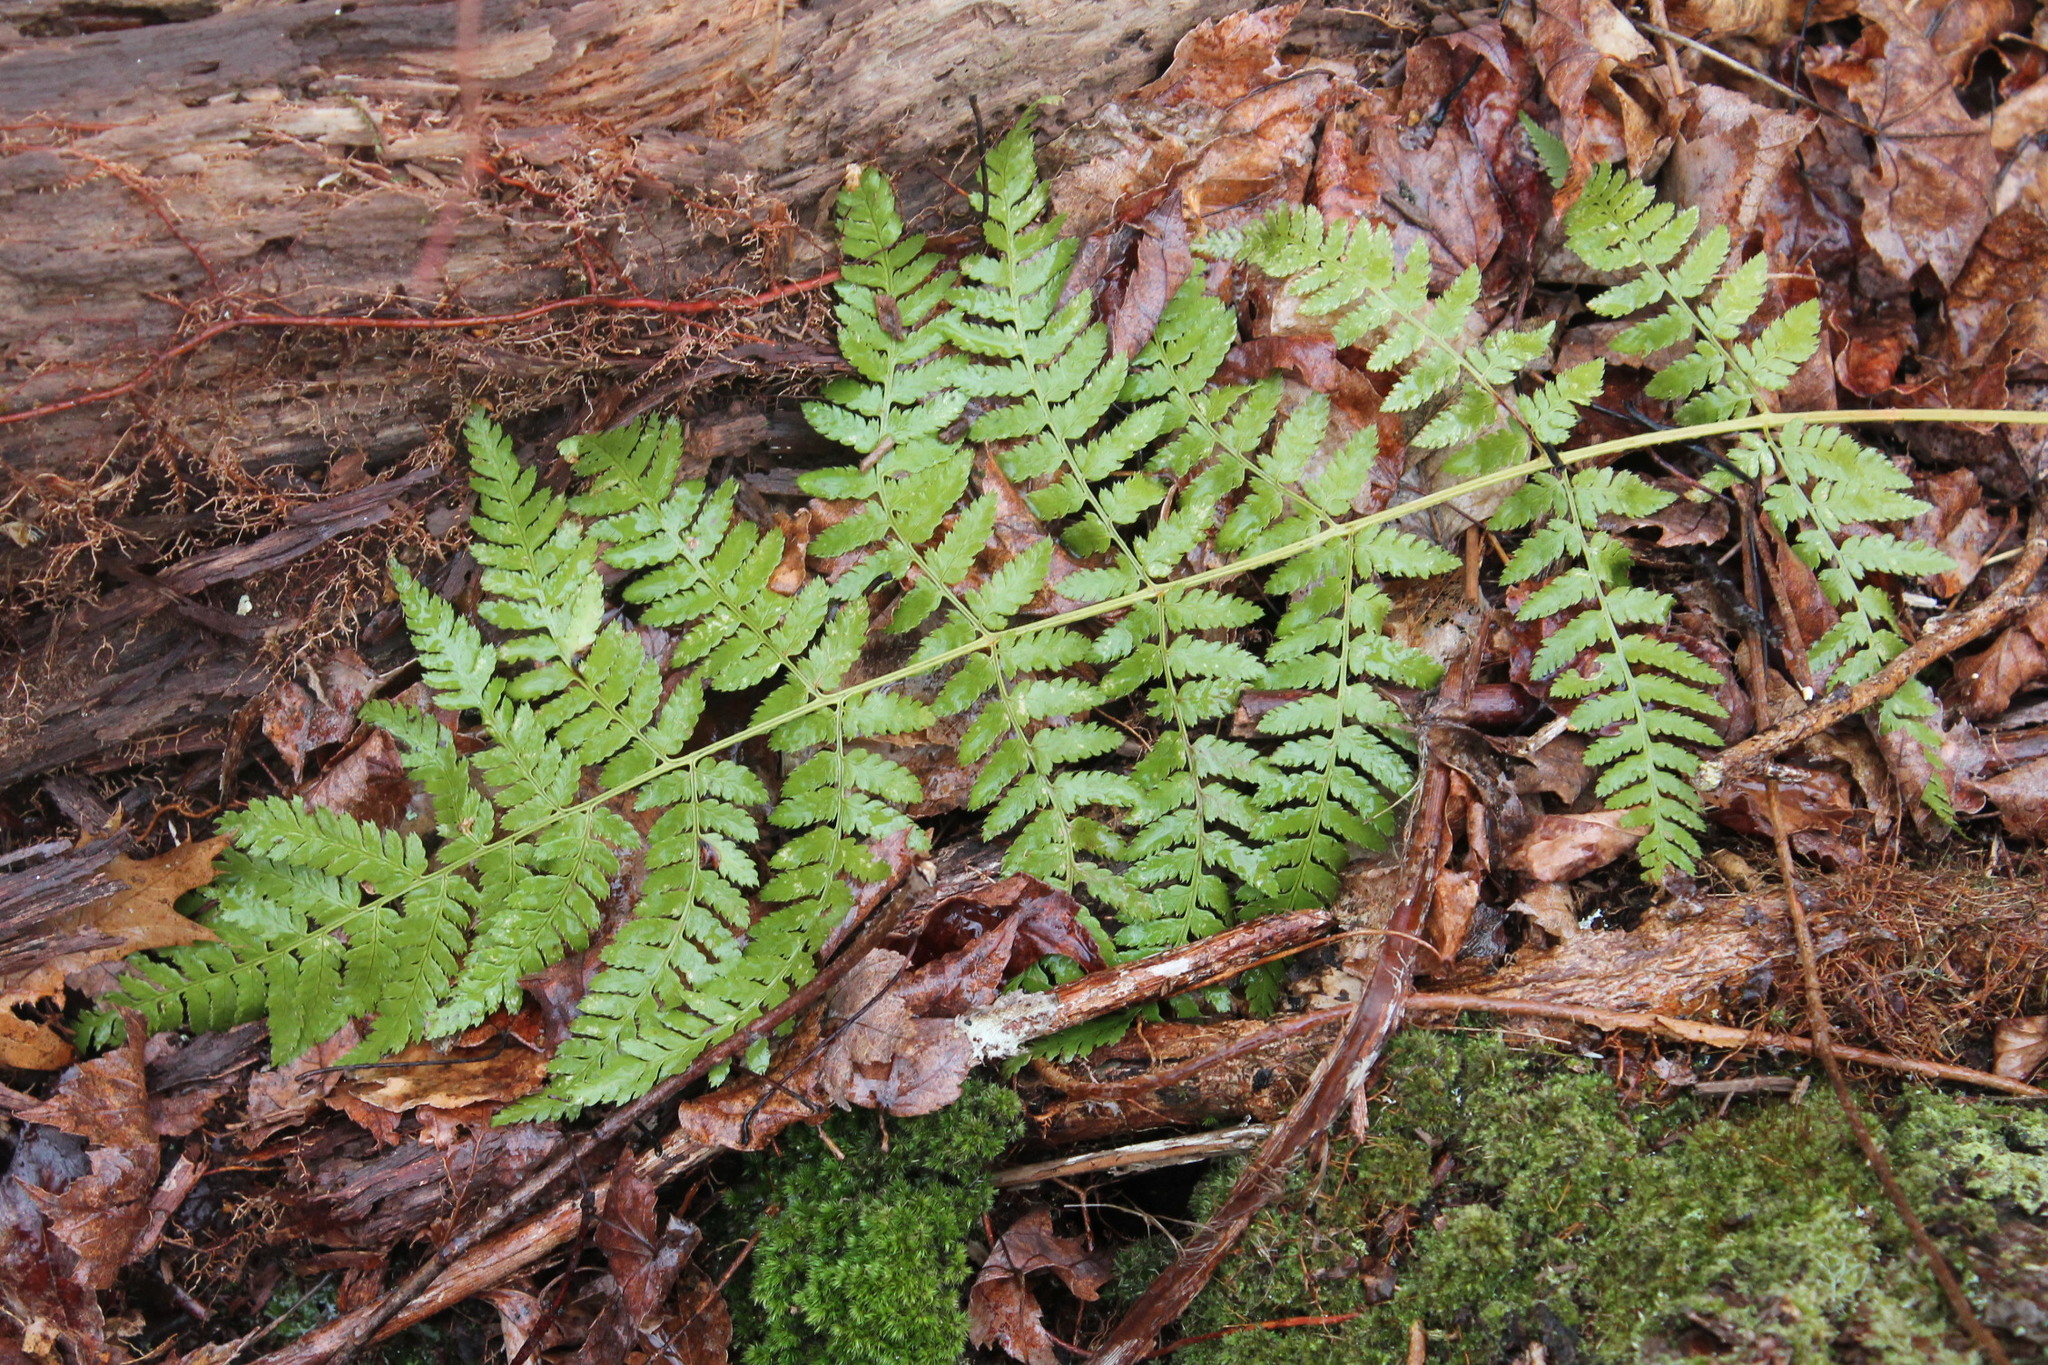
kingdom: Plantae
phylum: Tracheophyta
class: Polypodiopsida
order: Polypodiales
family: Dryopteridaceae
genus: Dryopteris
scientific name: Dryopteris carthusiana
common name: Narrow buckler-fern
